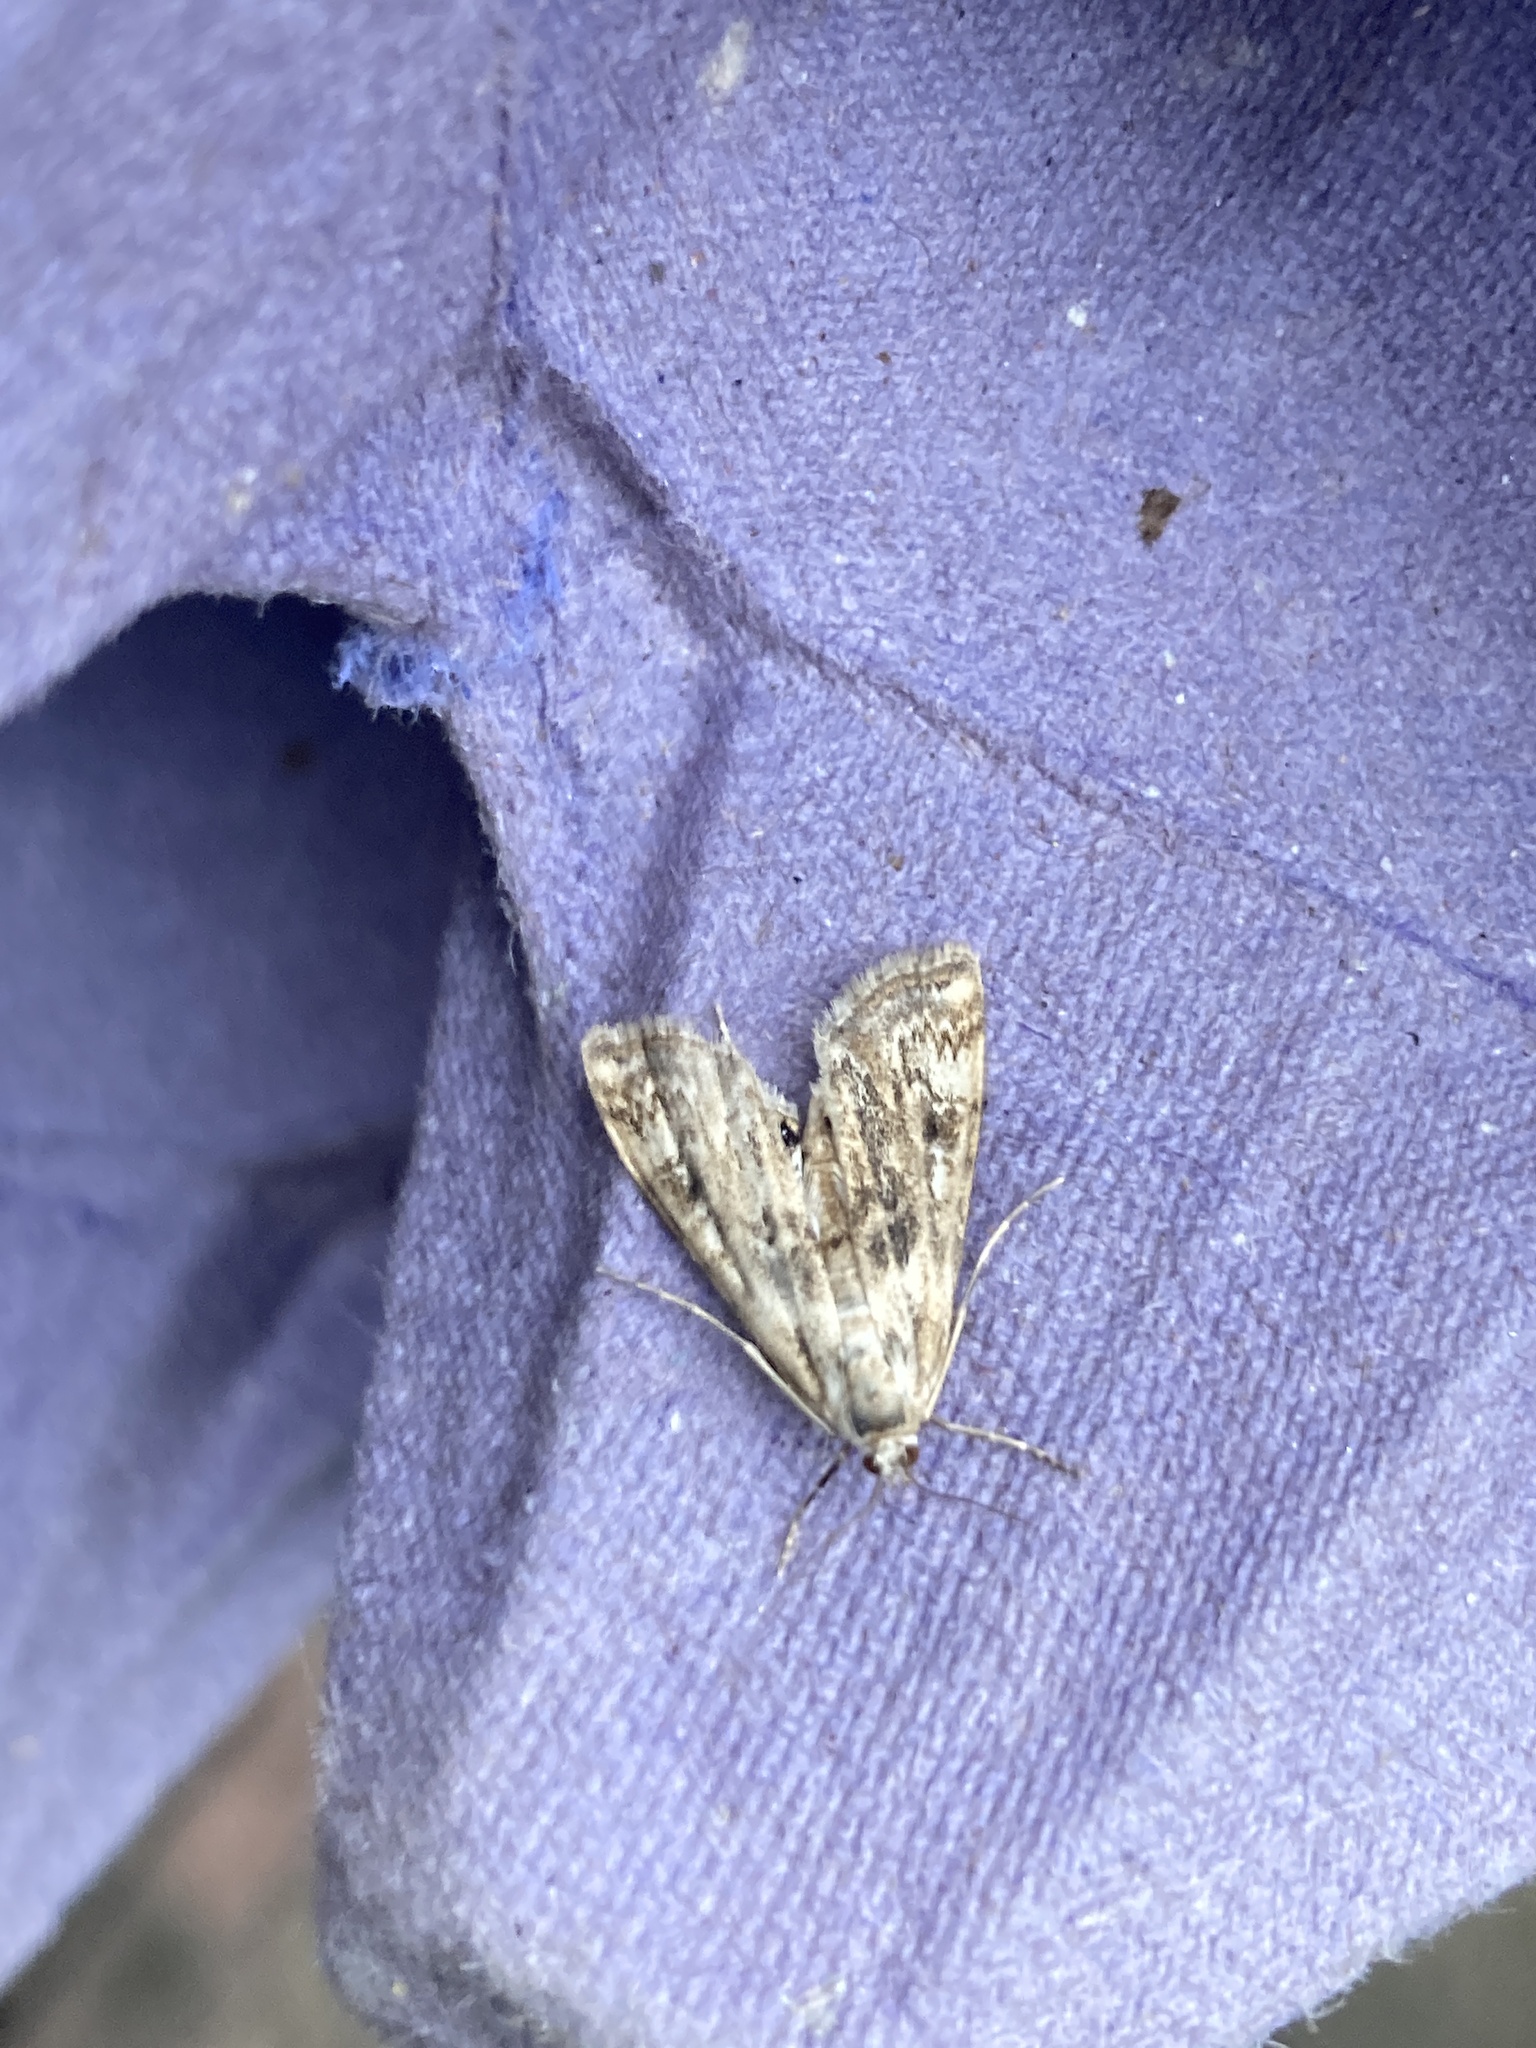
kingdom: Animalia
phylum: Arthropoda
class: Insecta
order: Lepidoptera
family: Crambidae
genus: Cataclysta
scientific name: Cataclysta lemnata
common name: Small china-mark
